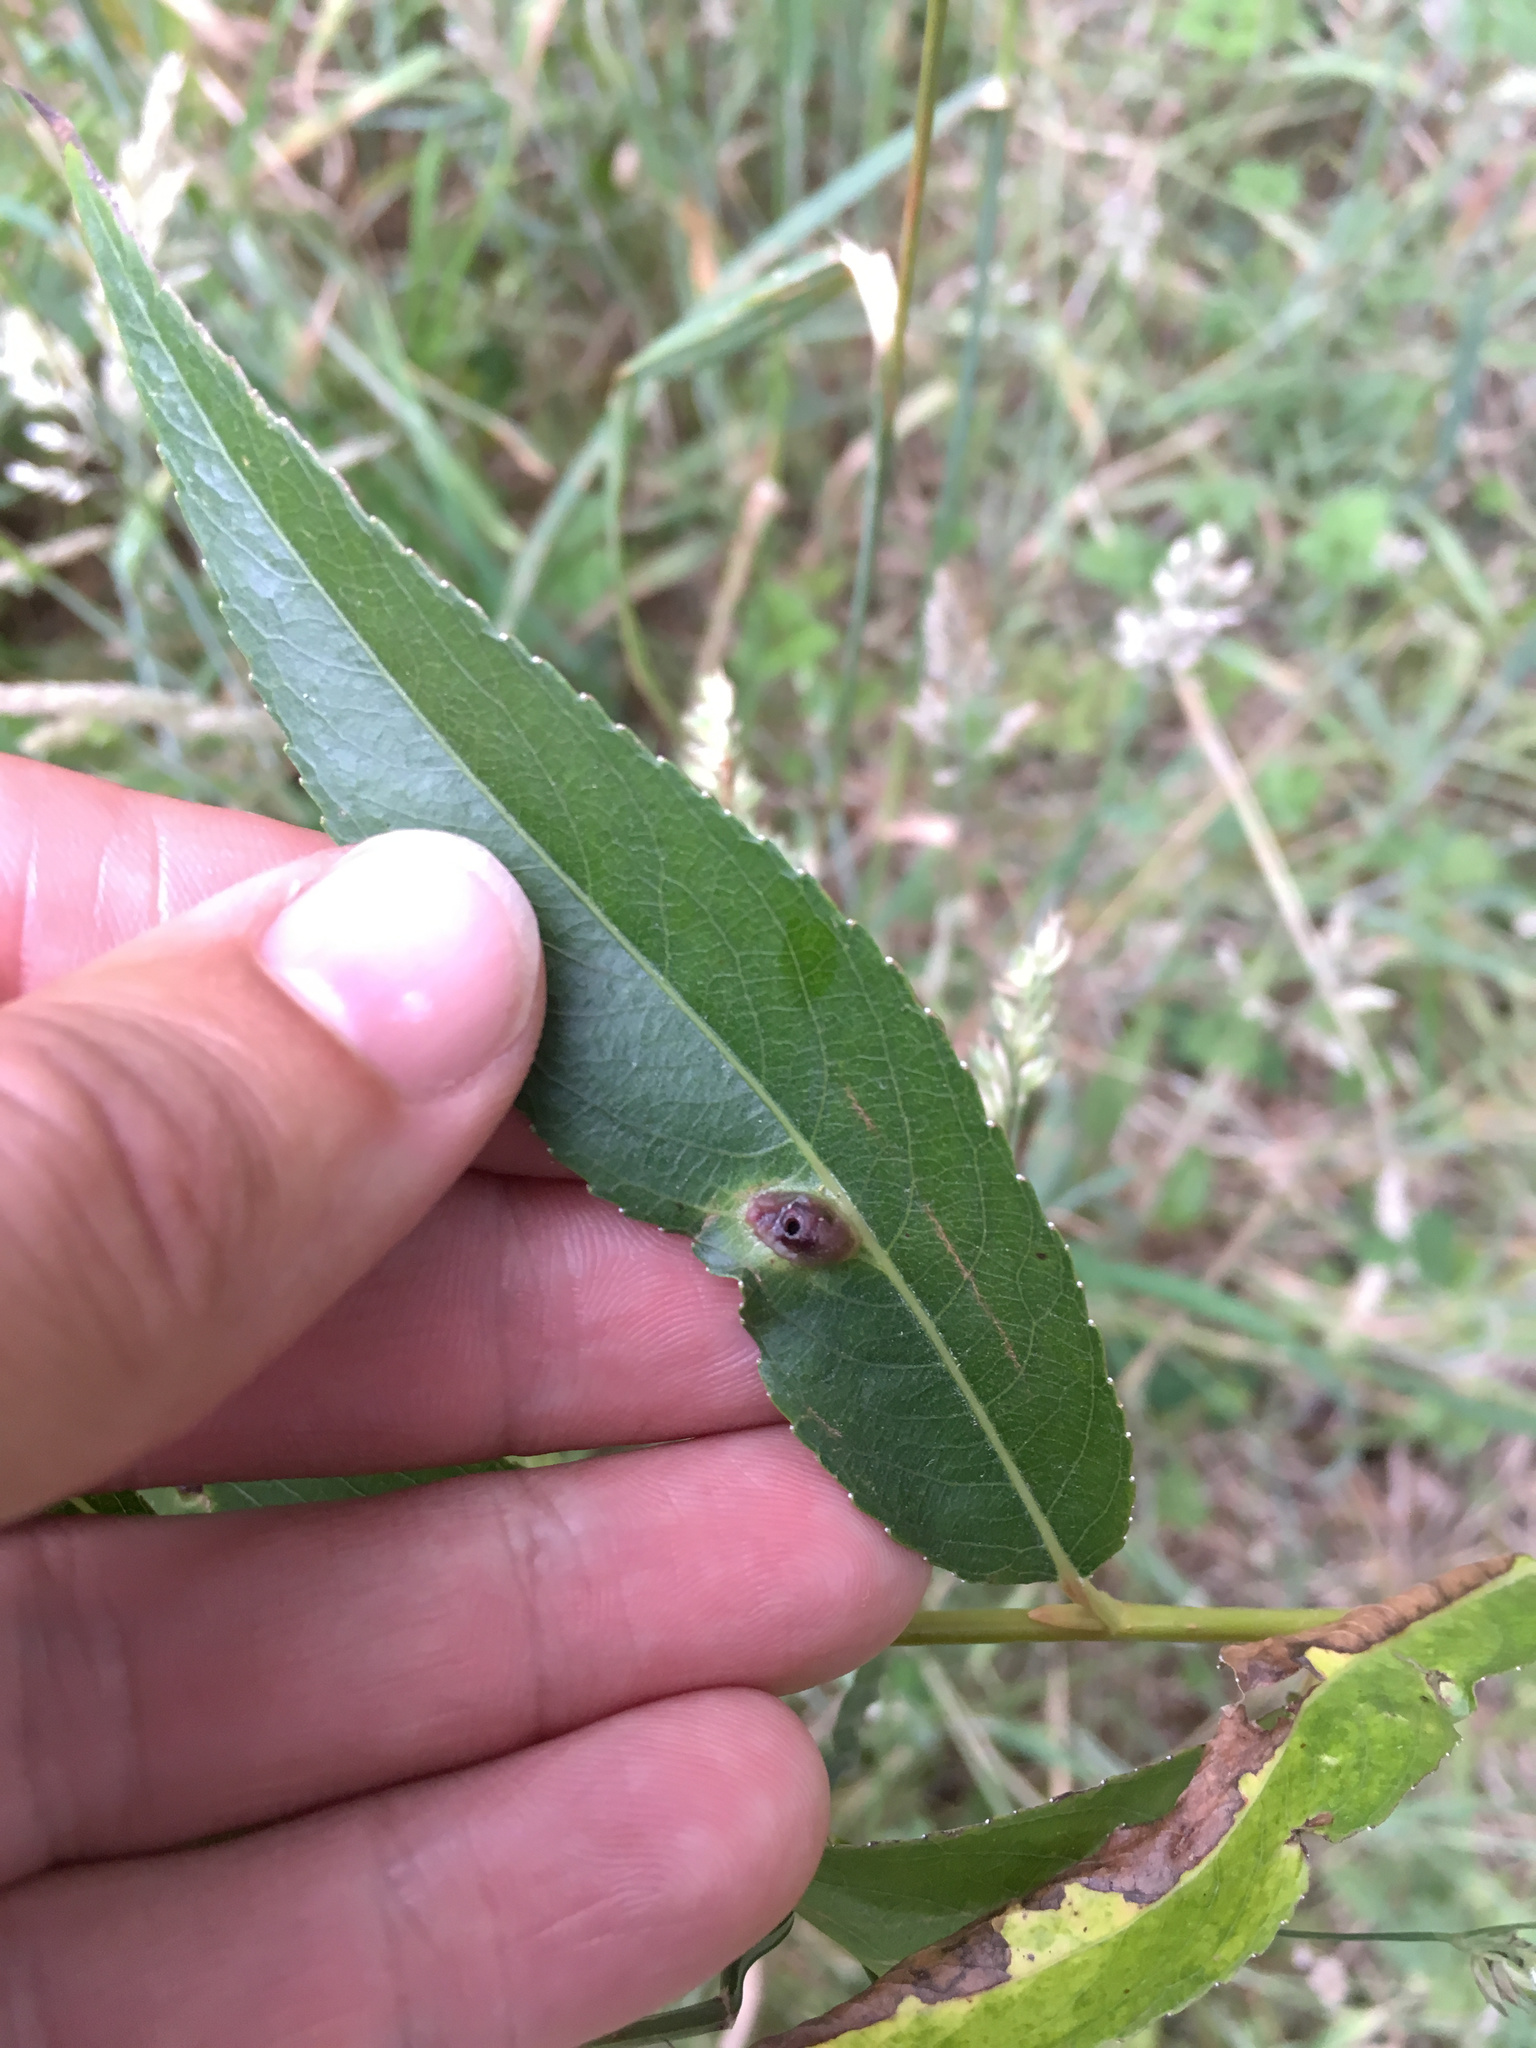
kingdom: Animalia
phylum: Arthropoda
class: Insecta
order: Hymenoptera
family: Tenthredinidae
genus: Pontania
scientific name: Pontania proxima
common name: Common sawfly
